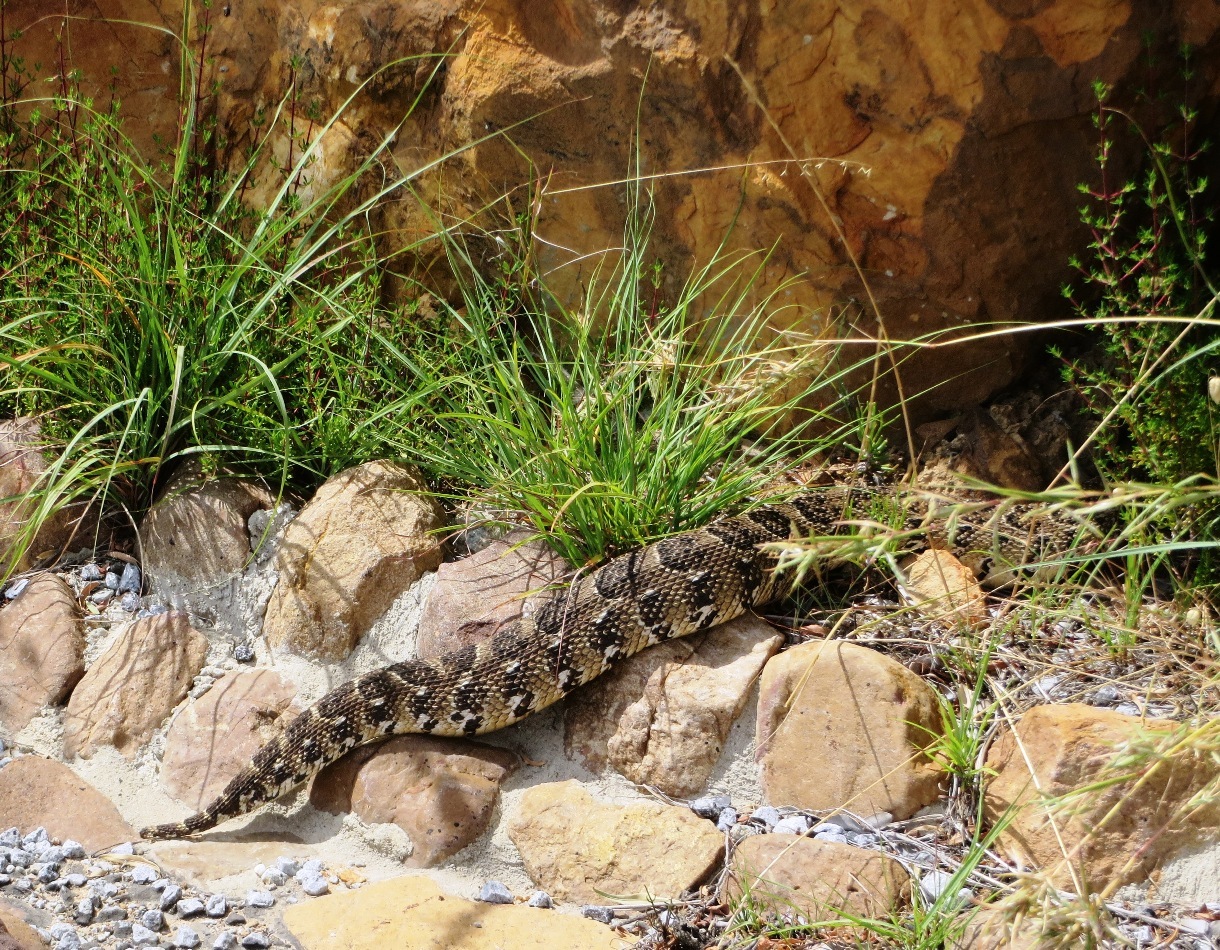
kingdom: Animalia
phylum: Chordata
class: Squamata
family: Viperidae
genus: Bitis
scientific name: Bitis arietans
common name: Puff adder
